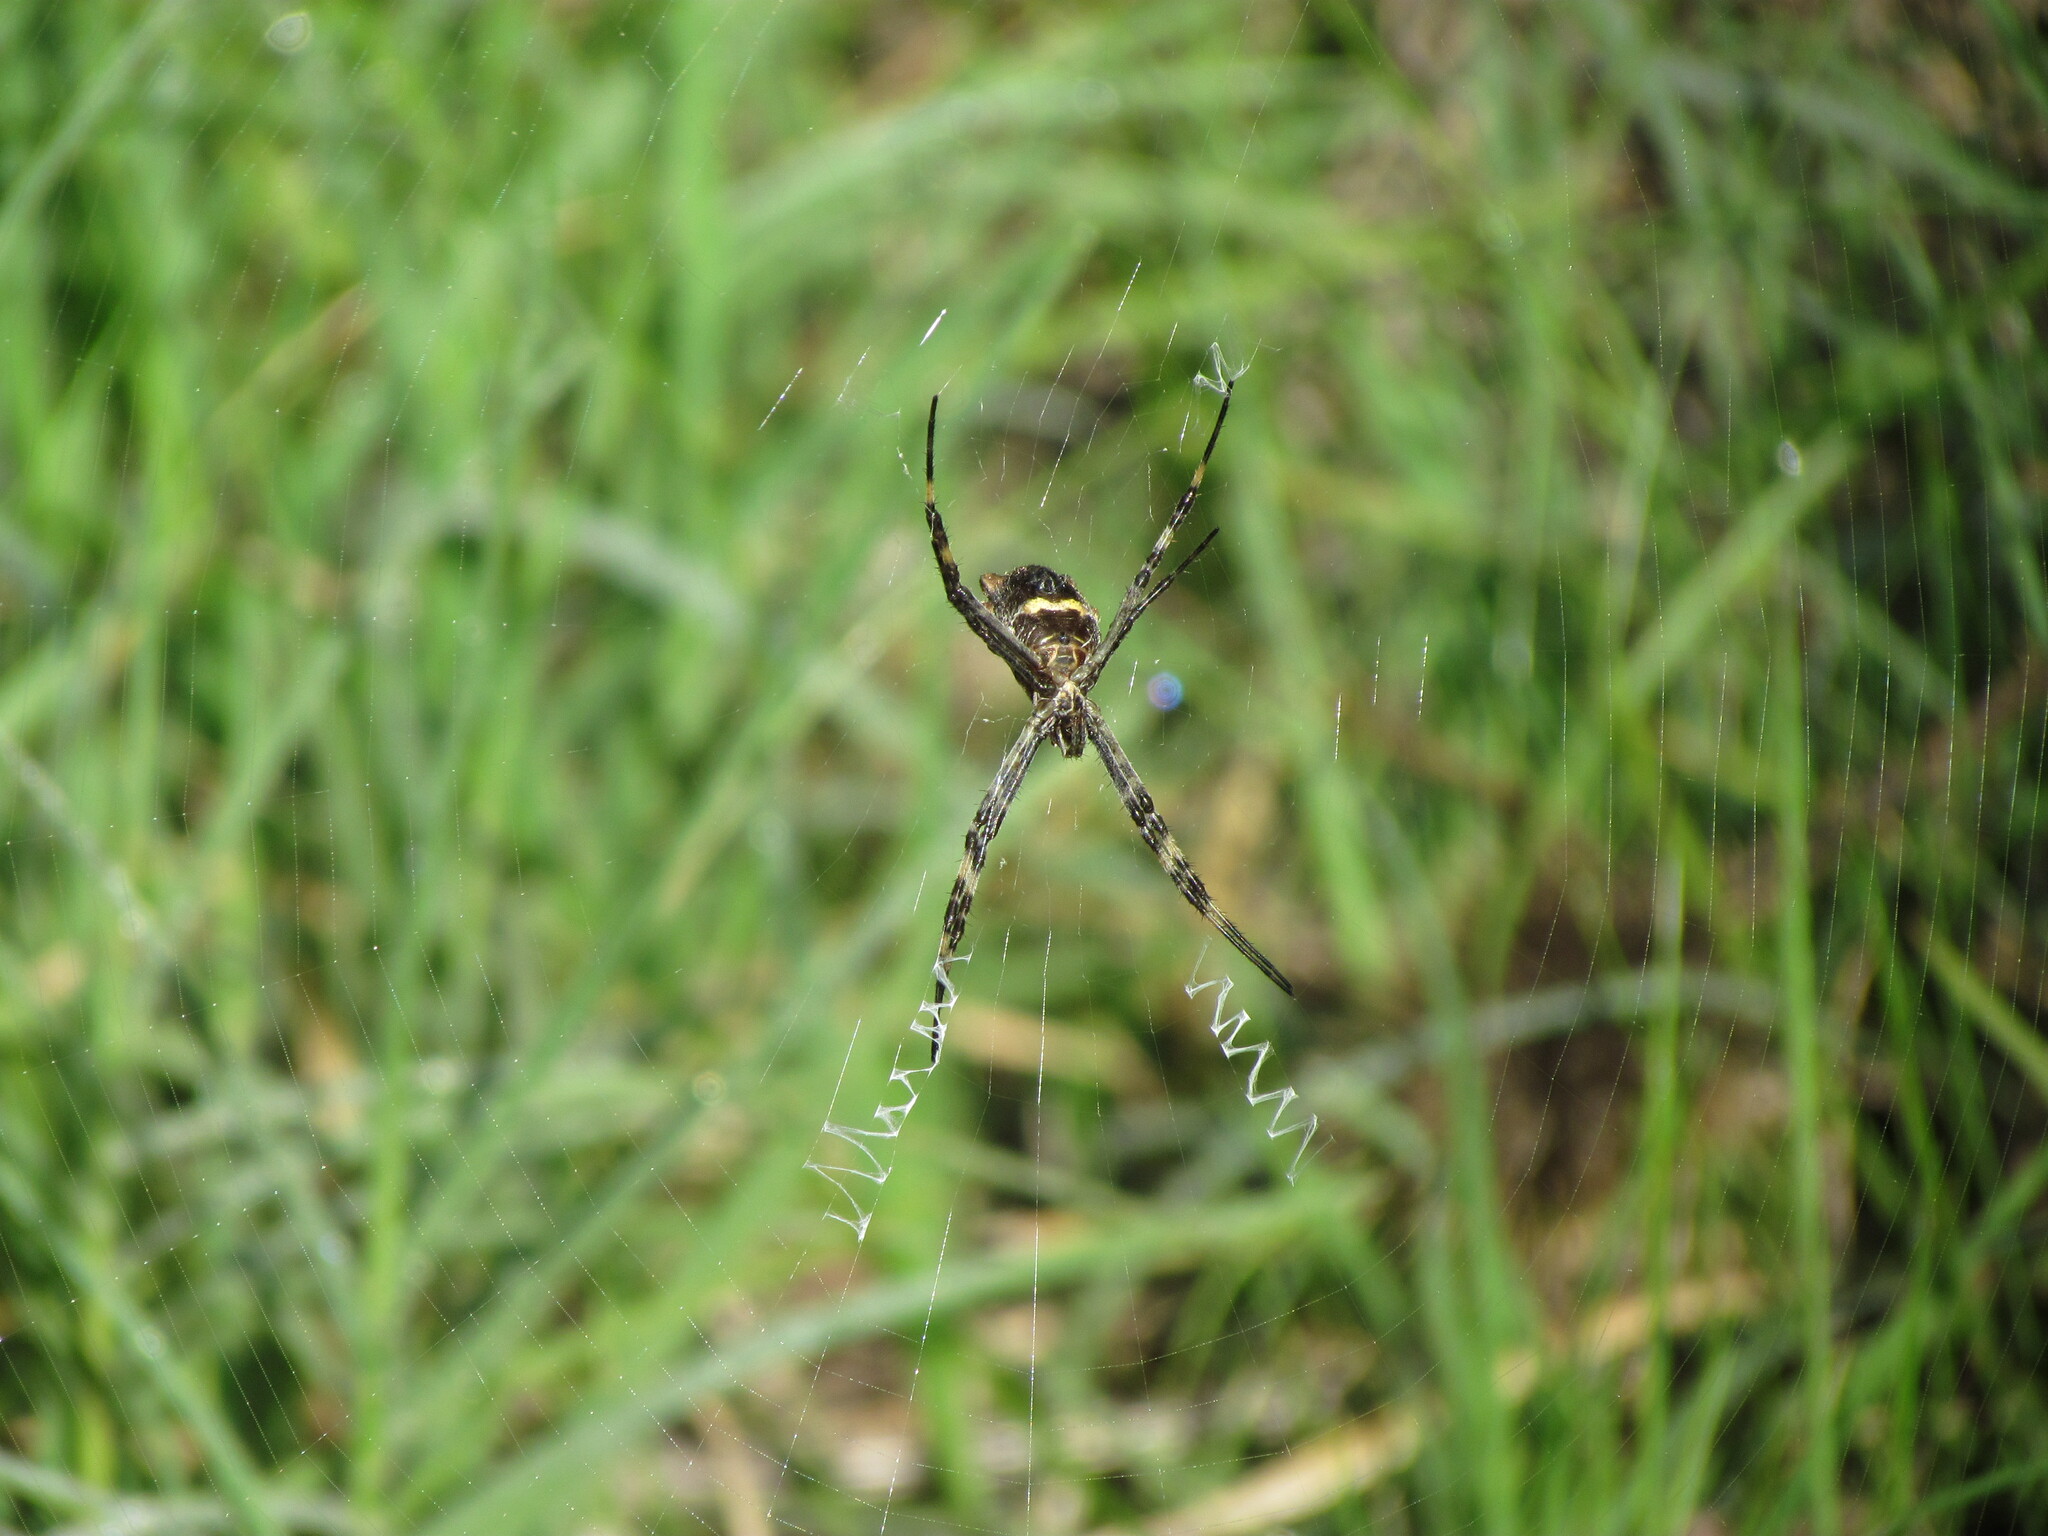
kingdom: Animalia
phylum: Arthropoda
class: Arachnida
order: Araneae
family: Araneidae
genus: Argiope
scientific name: Argiope argentata
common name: Orb weavers
